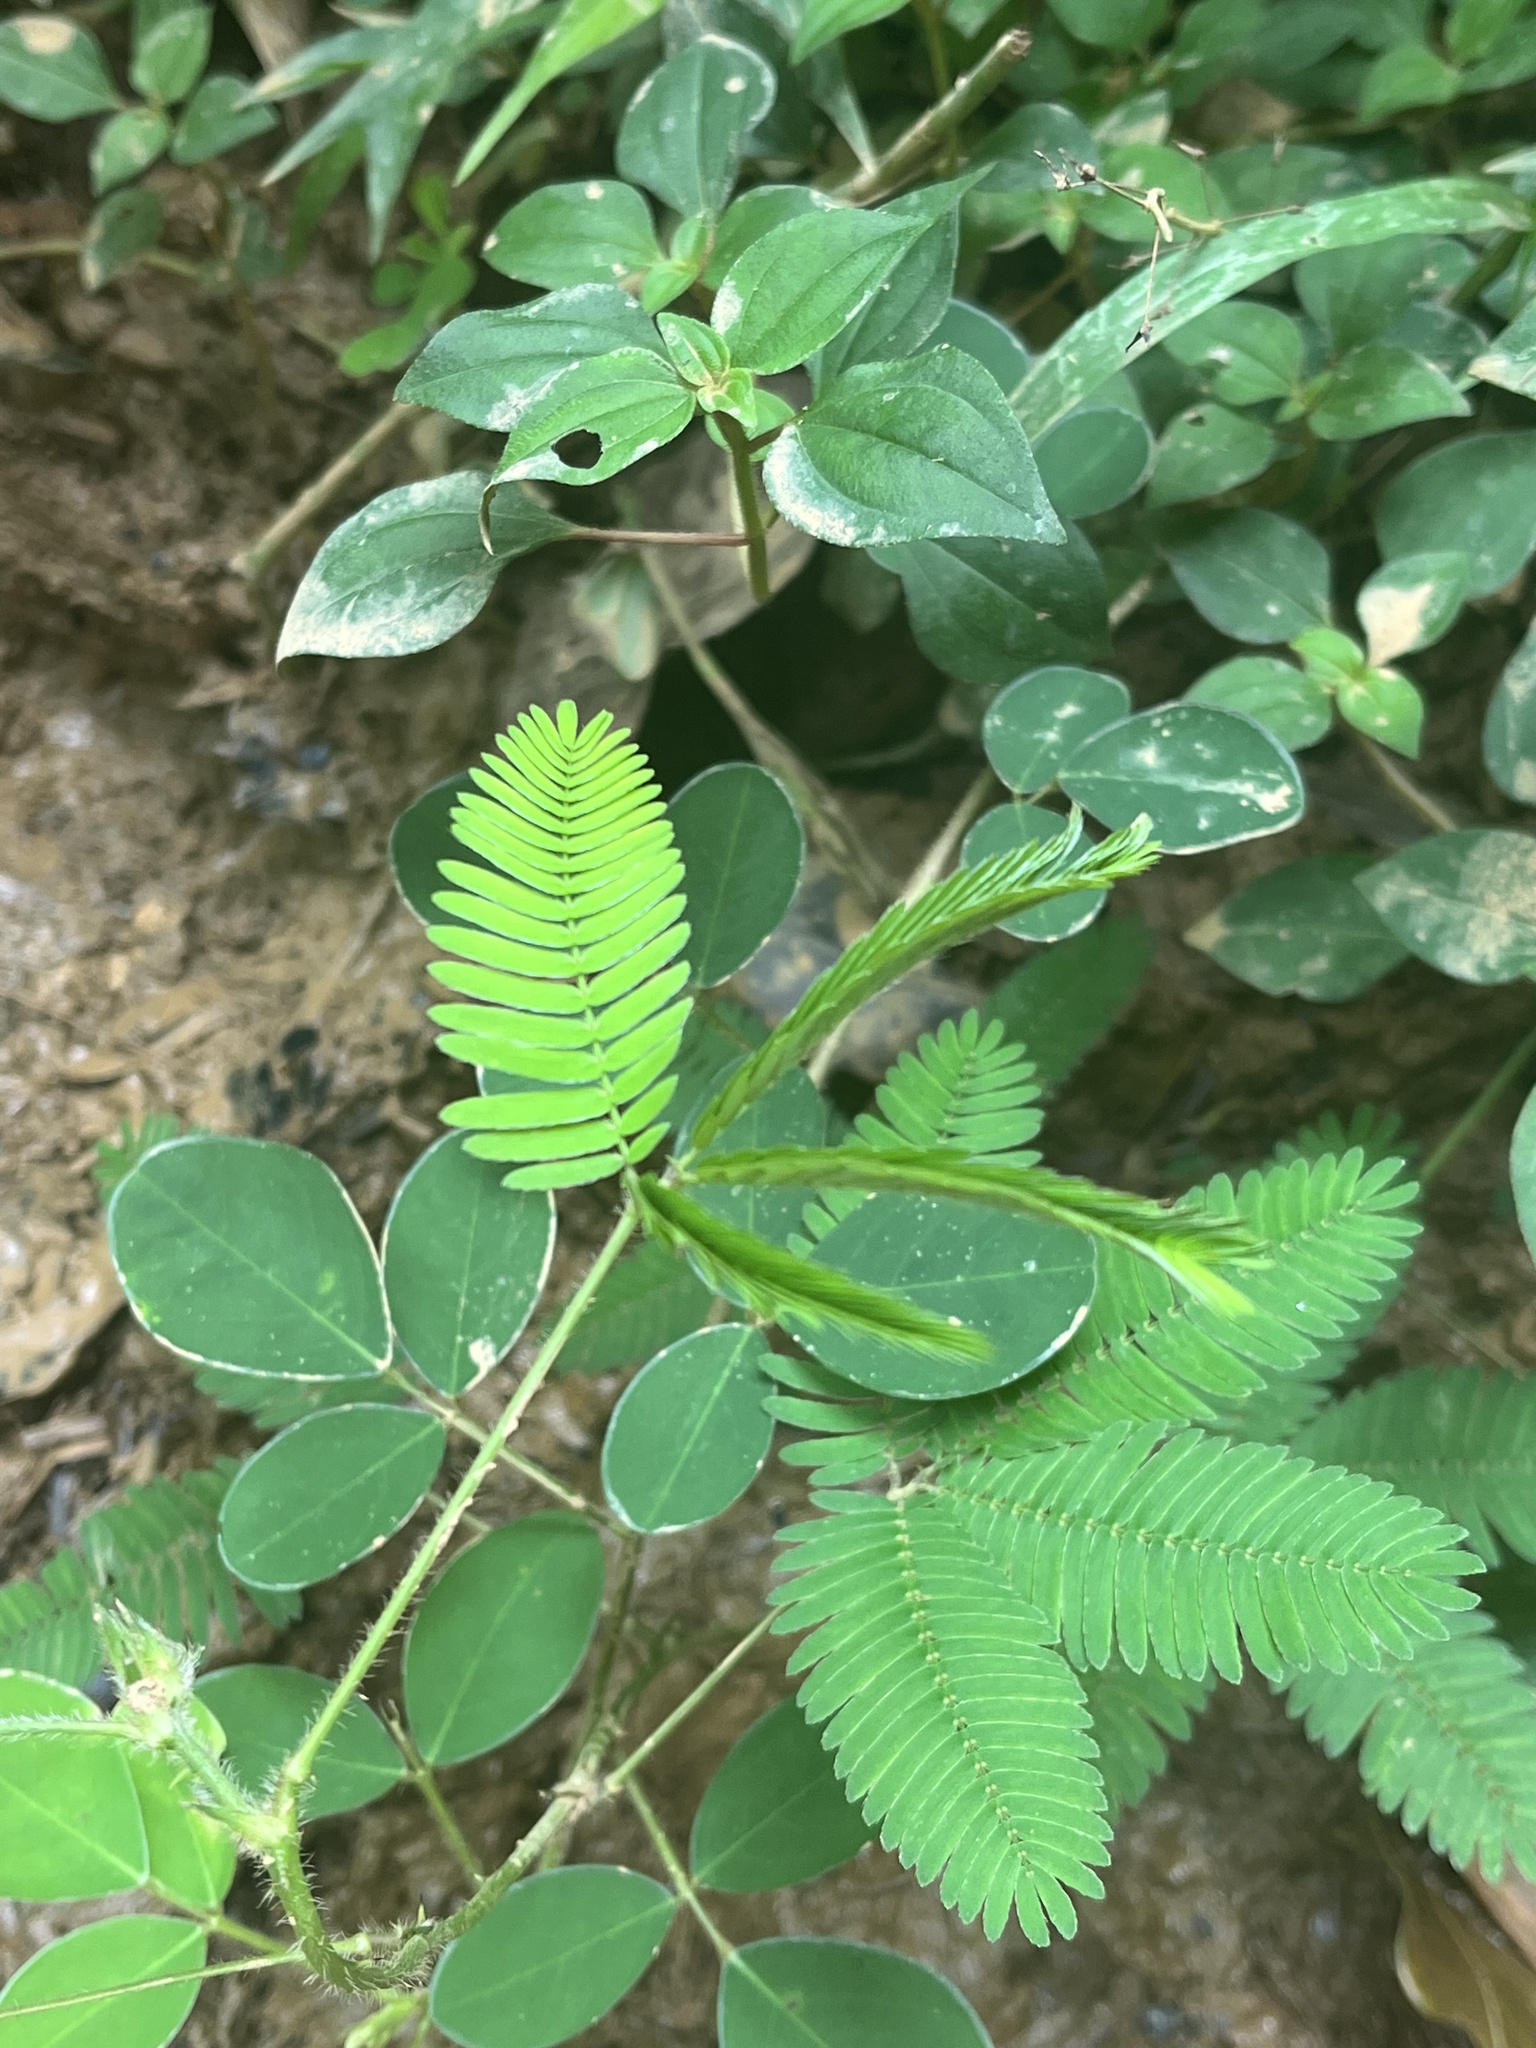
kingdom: Plantae
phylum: Tracheophyta
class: Magnoliopsida
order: Fabales
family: Fabaceae
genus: Mimosa
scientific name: Mimosa pudica
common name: Sensitive plant
